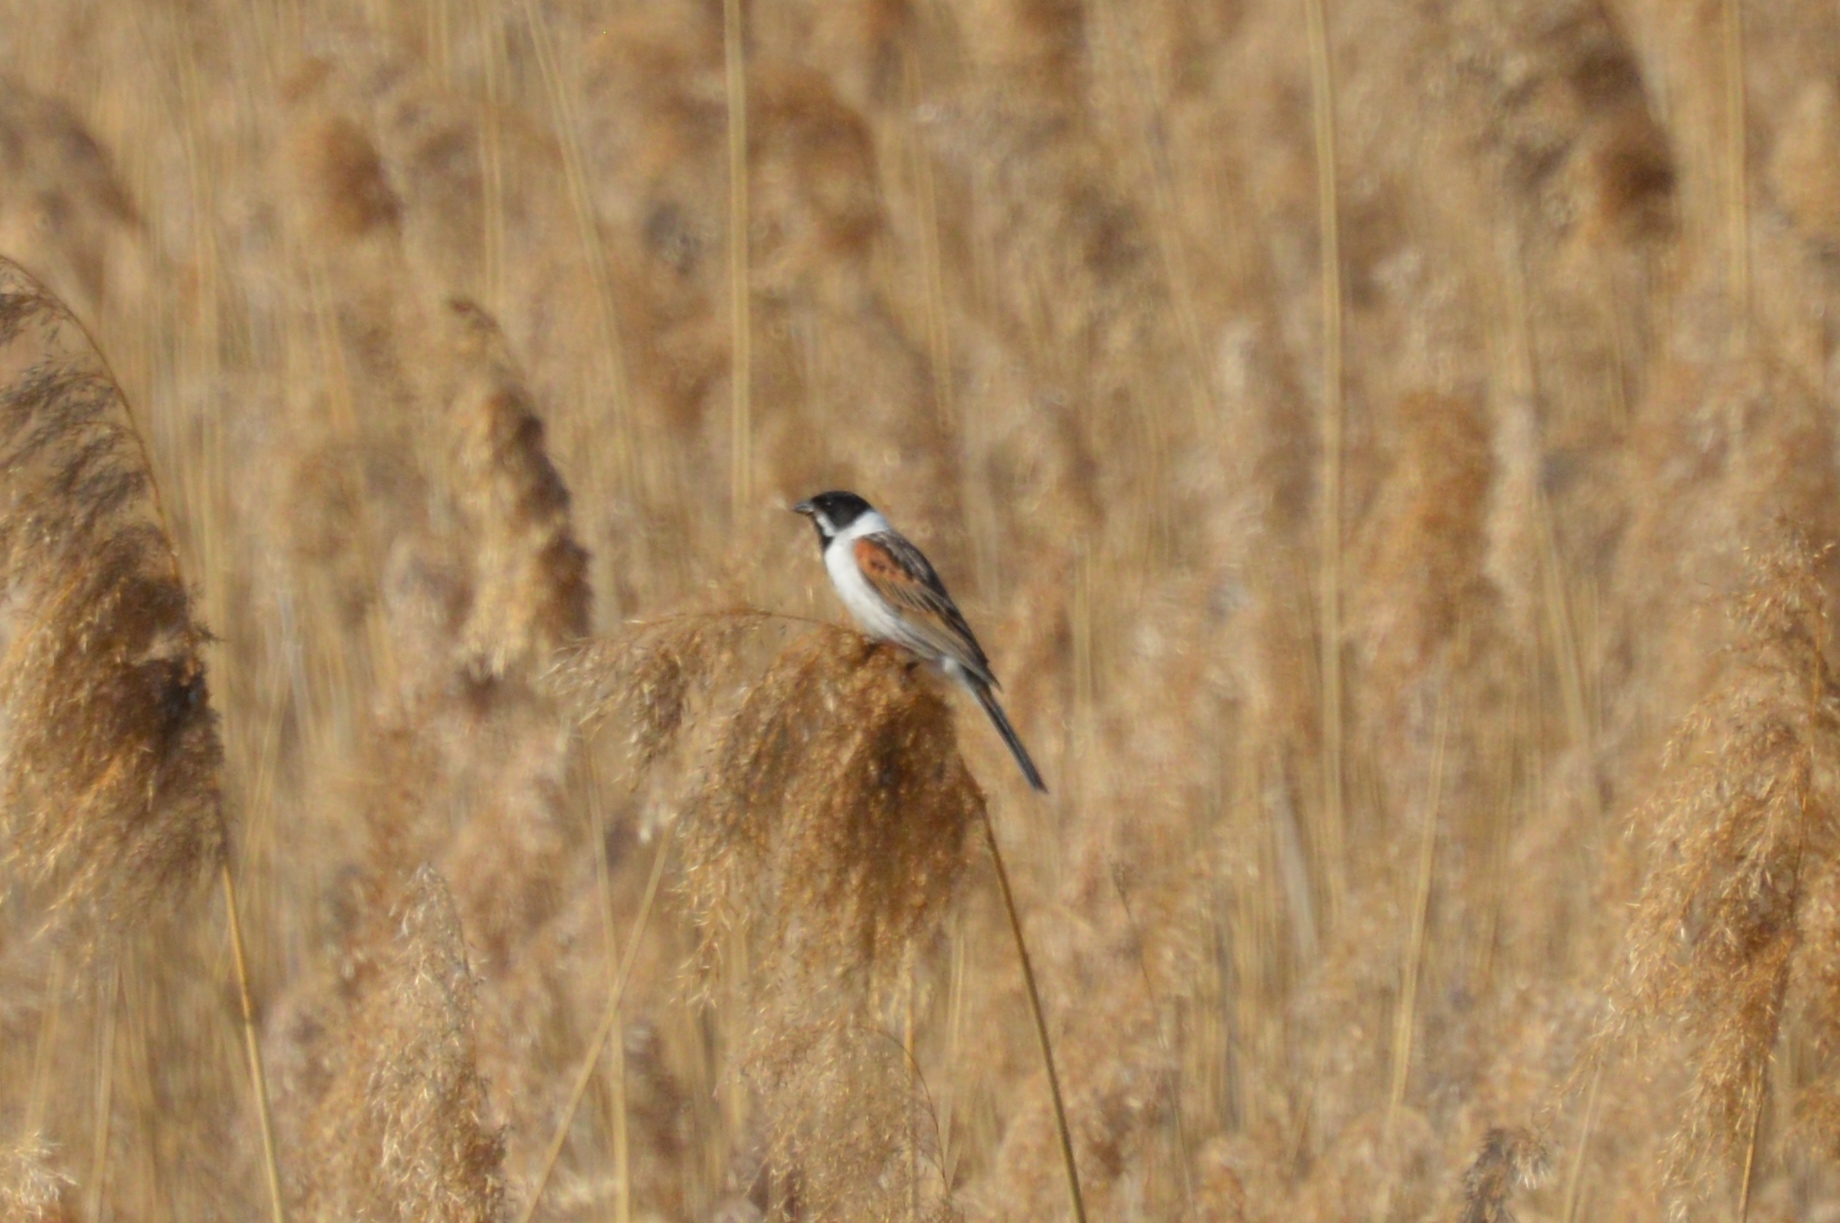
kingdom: Animalia
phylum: Chordata
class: Aves
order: Passeriformes
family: Emberizidae
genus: Emberiza
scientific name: Emberiza schoeniclus
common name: Reed bunting
